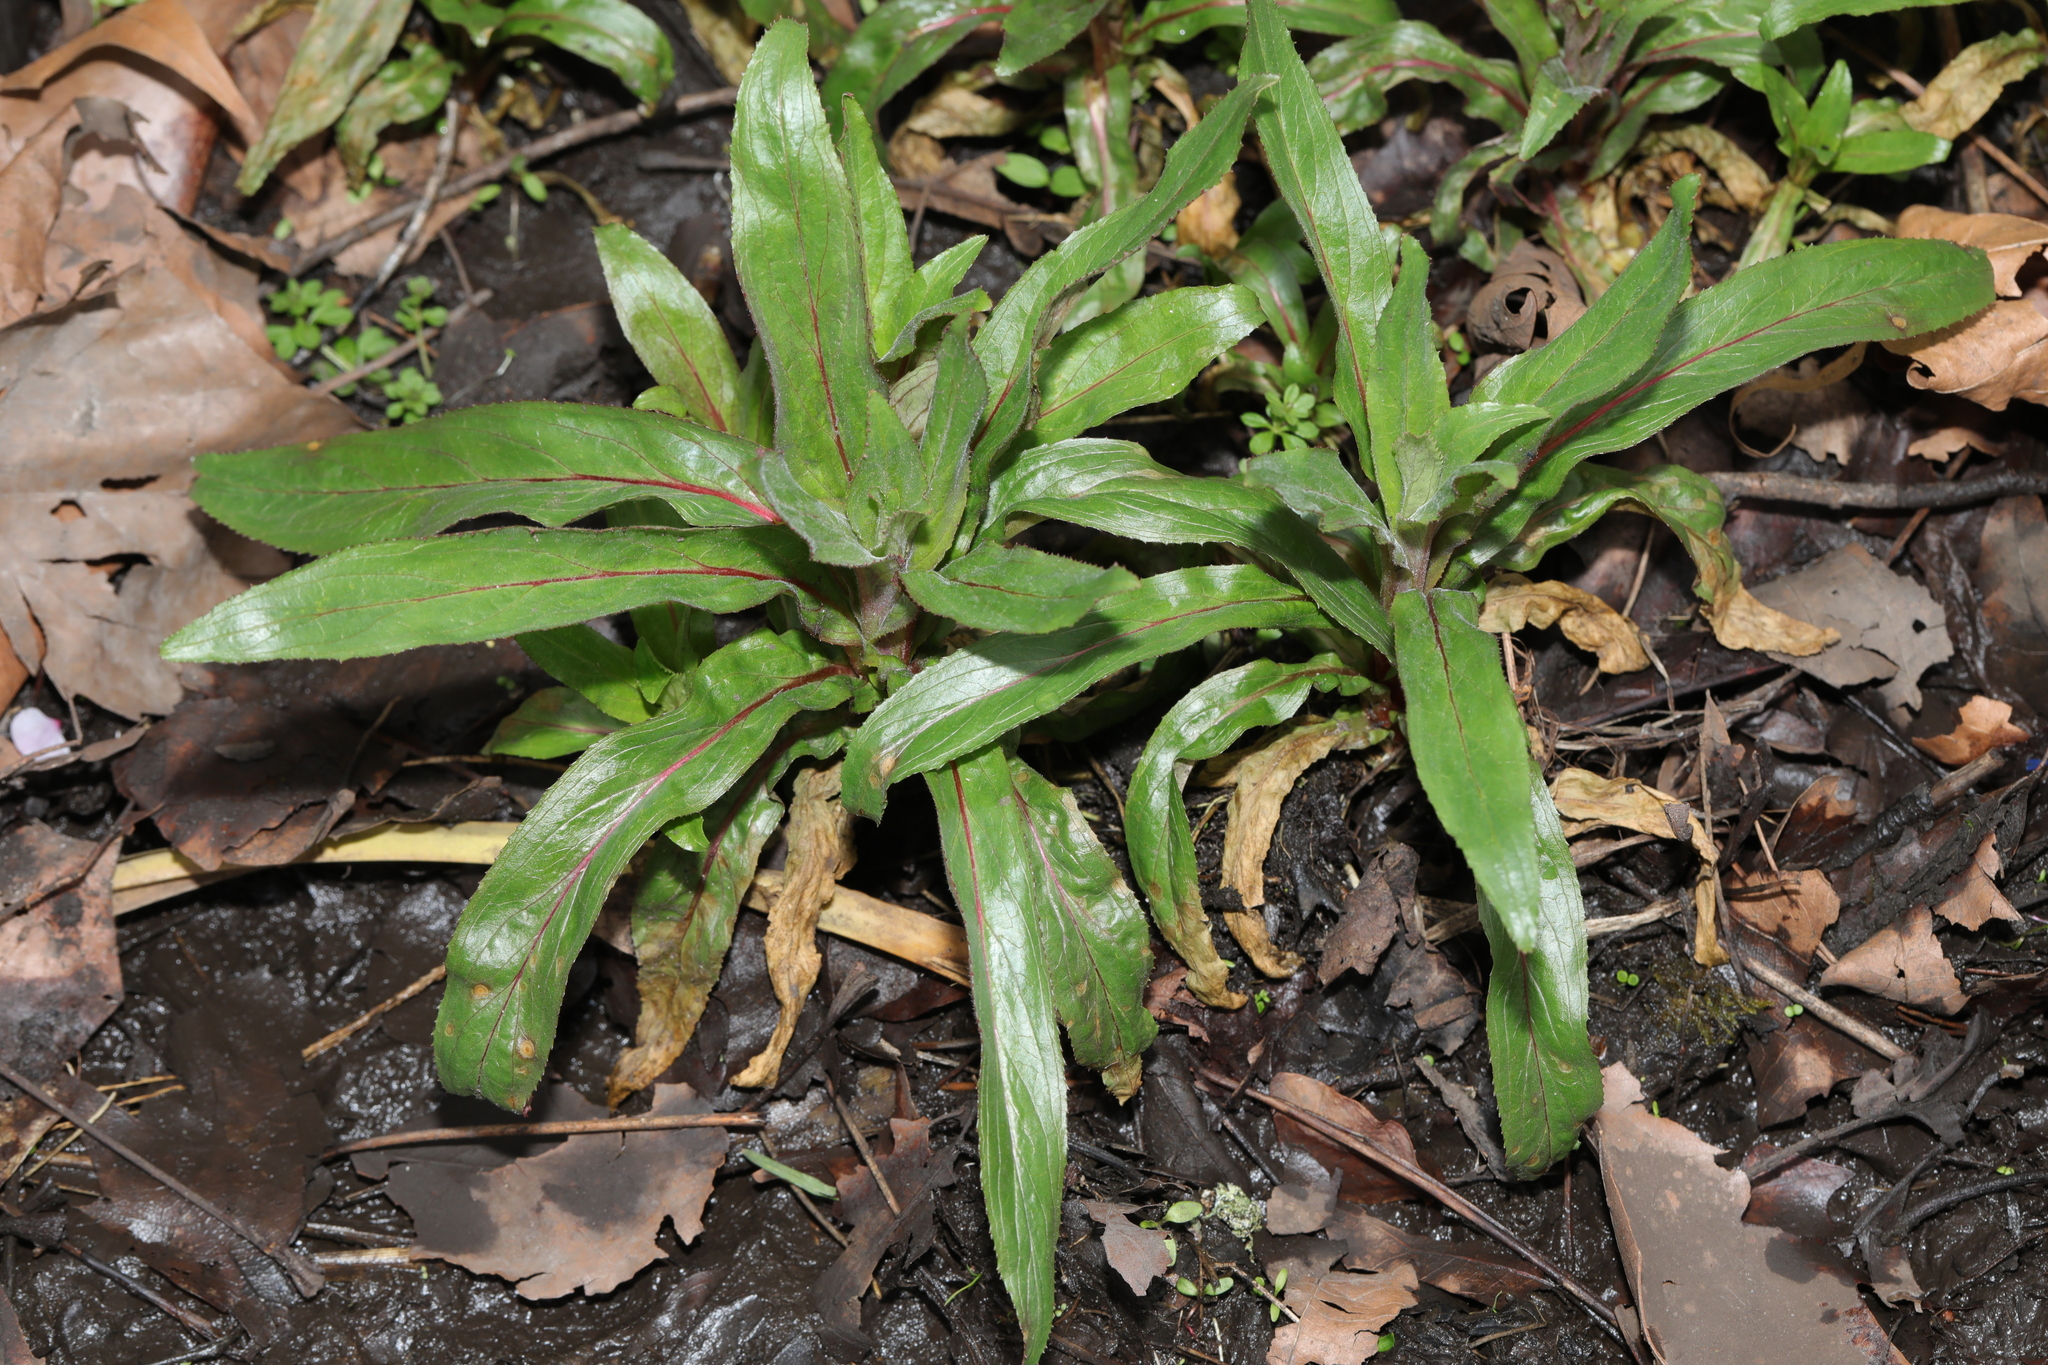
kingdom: Plantae
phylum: Tracheophyta
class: Magnoliopsida
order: Myrtales
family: Onagraceae
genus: Epilobium
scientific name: Epilobium hirsutum
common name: Great willowherb
